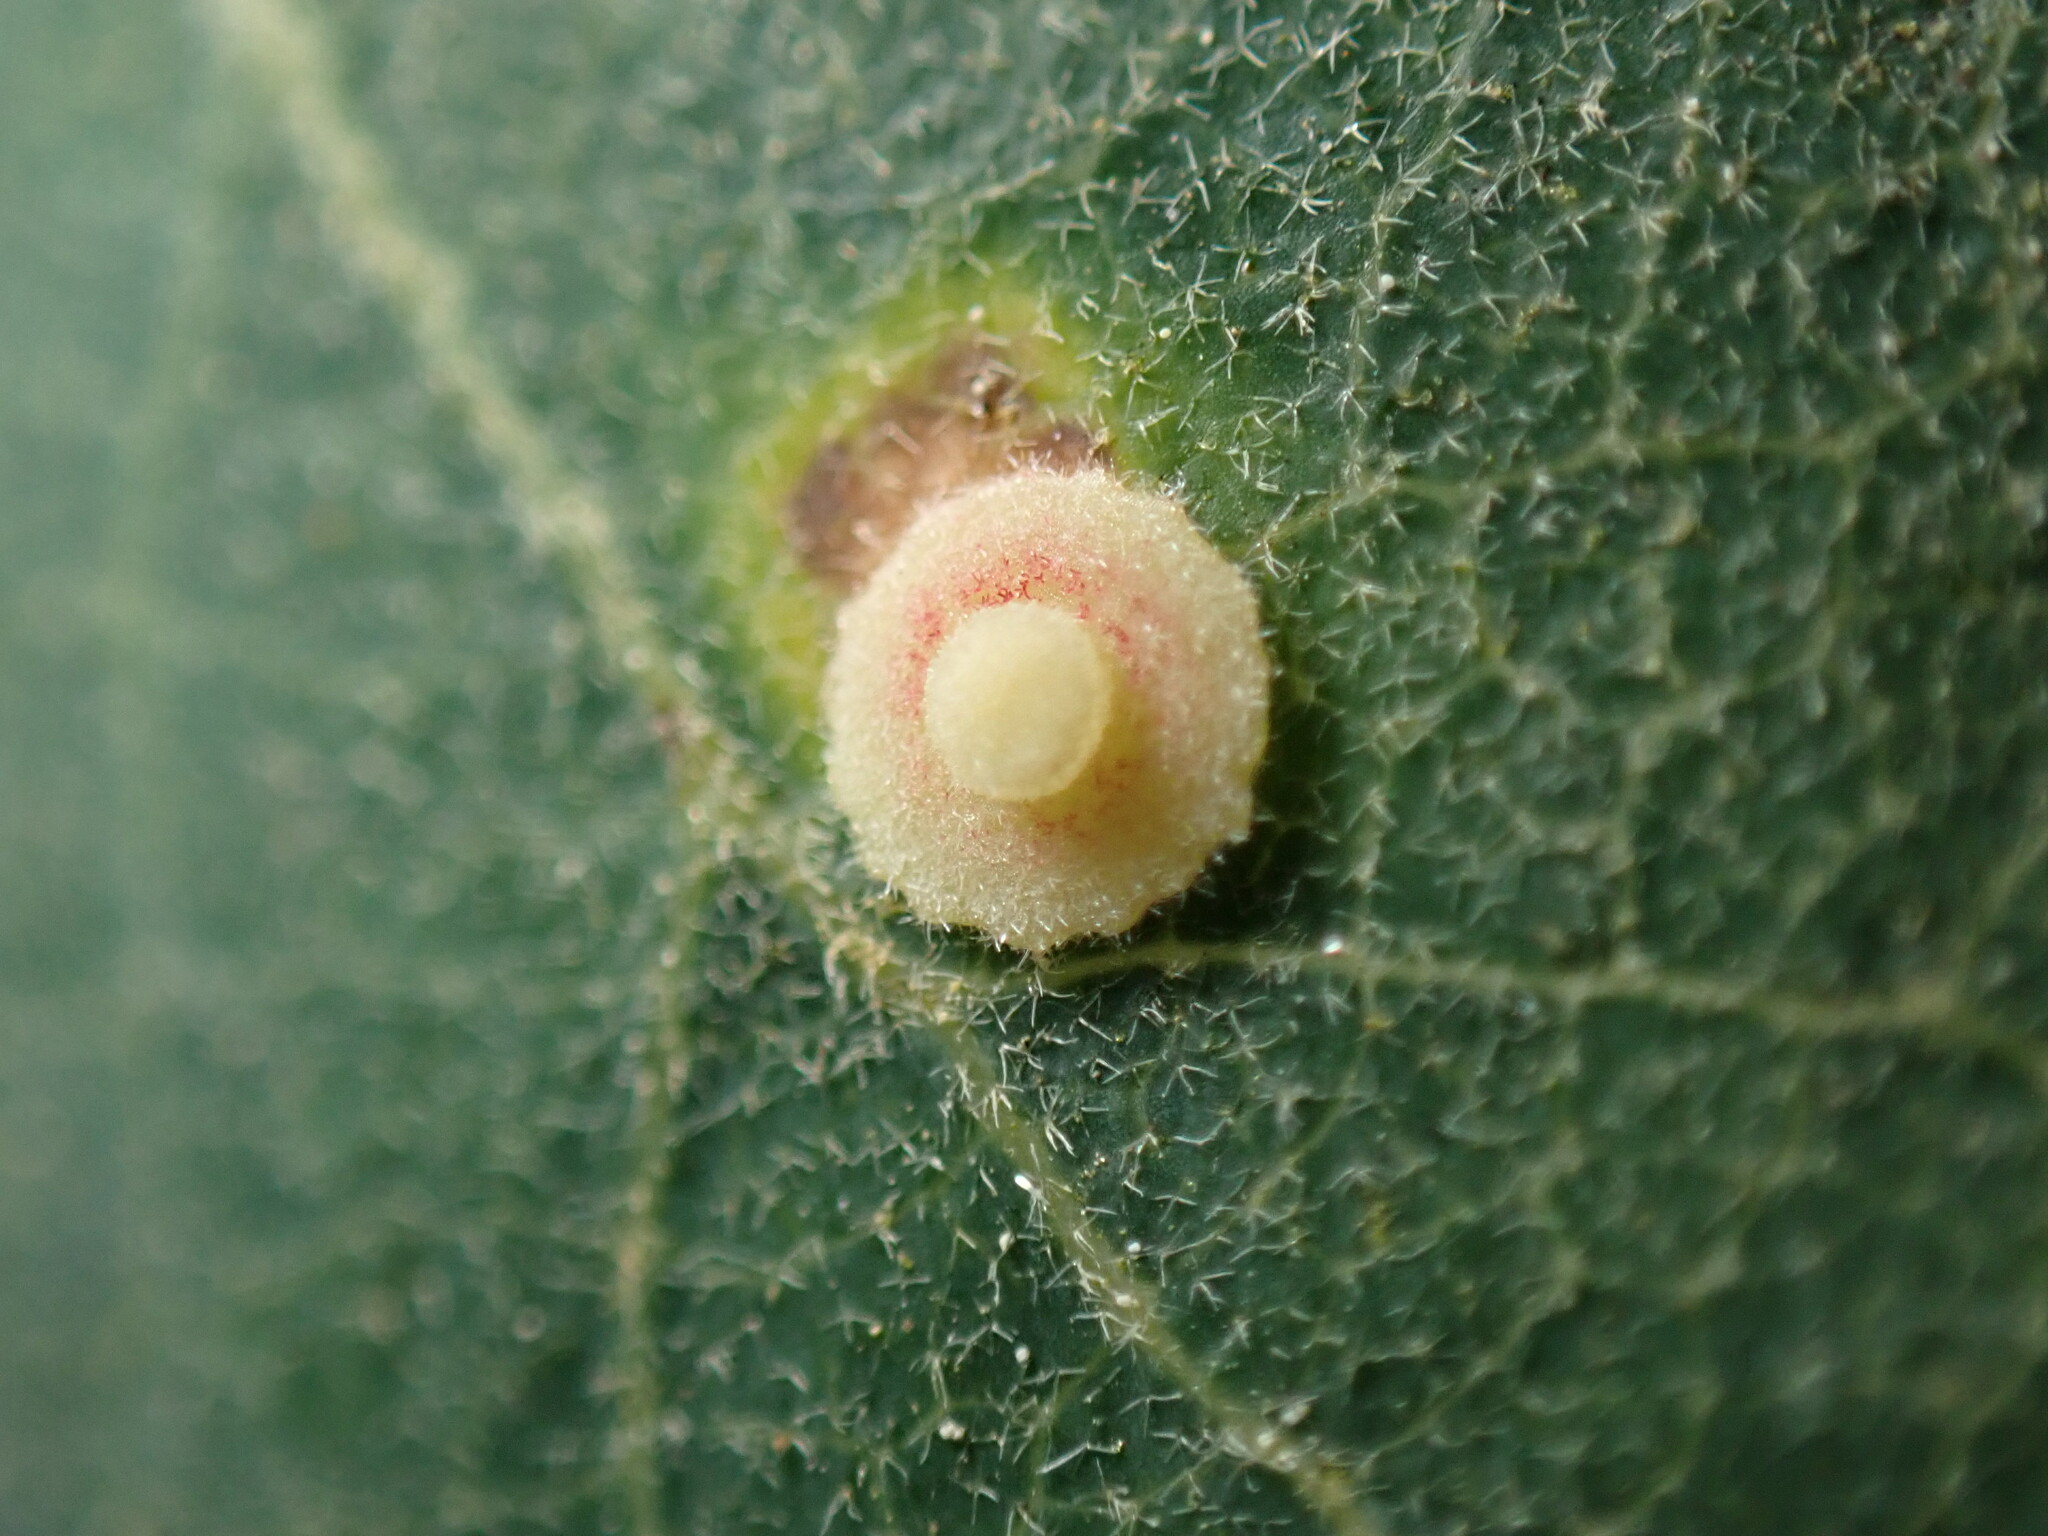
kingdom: Animalia
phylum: Arthropoda
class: Insecta
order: Hymenoptera
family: Cynipidae
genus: Andricus
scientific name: Andricus
